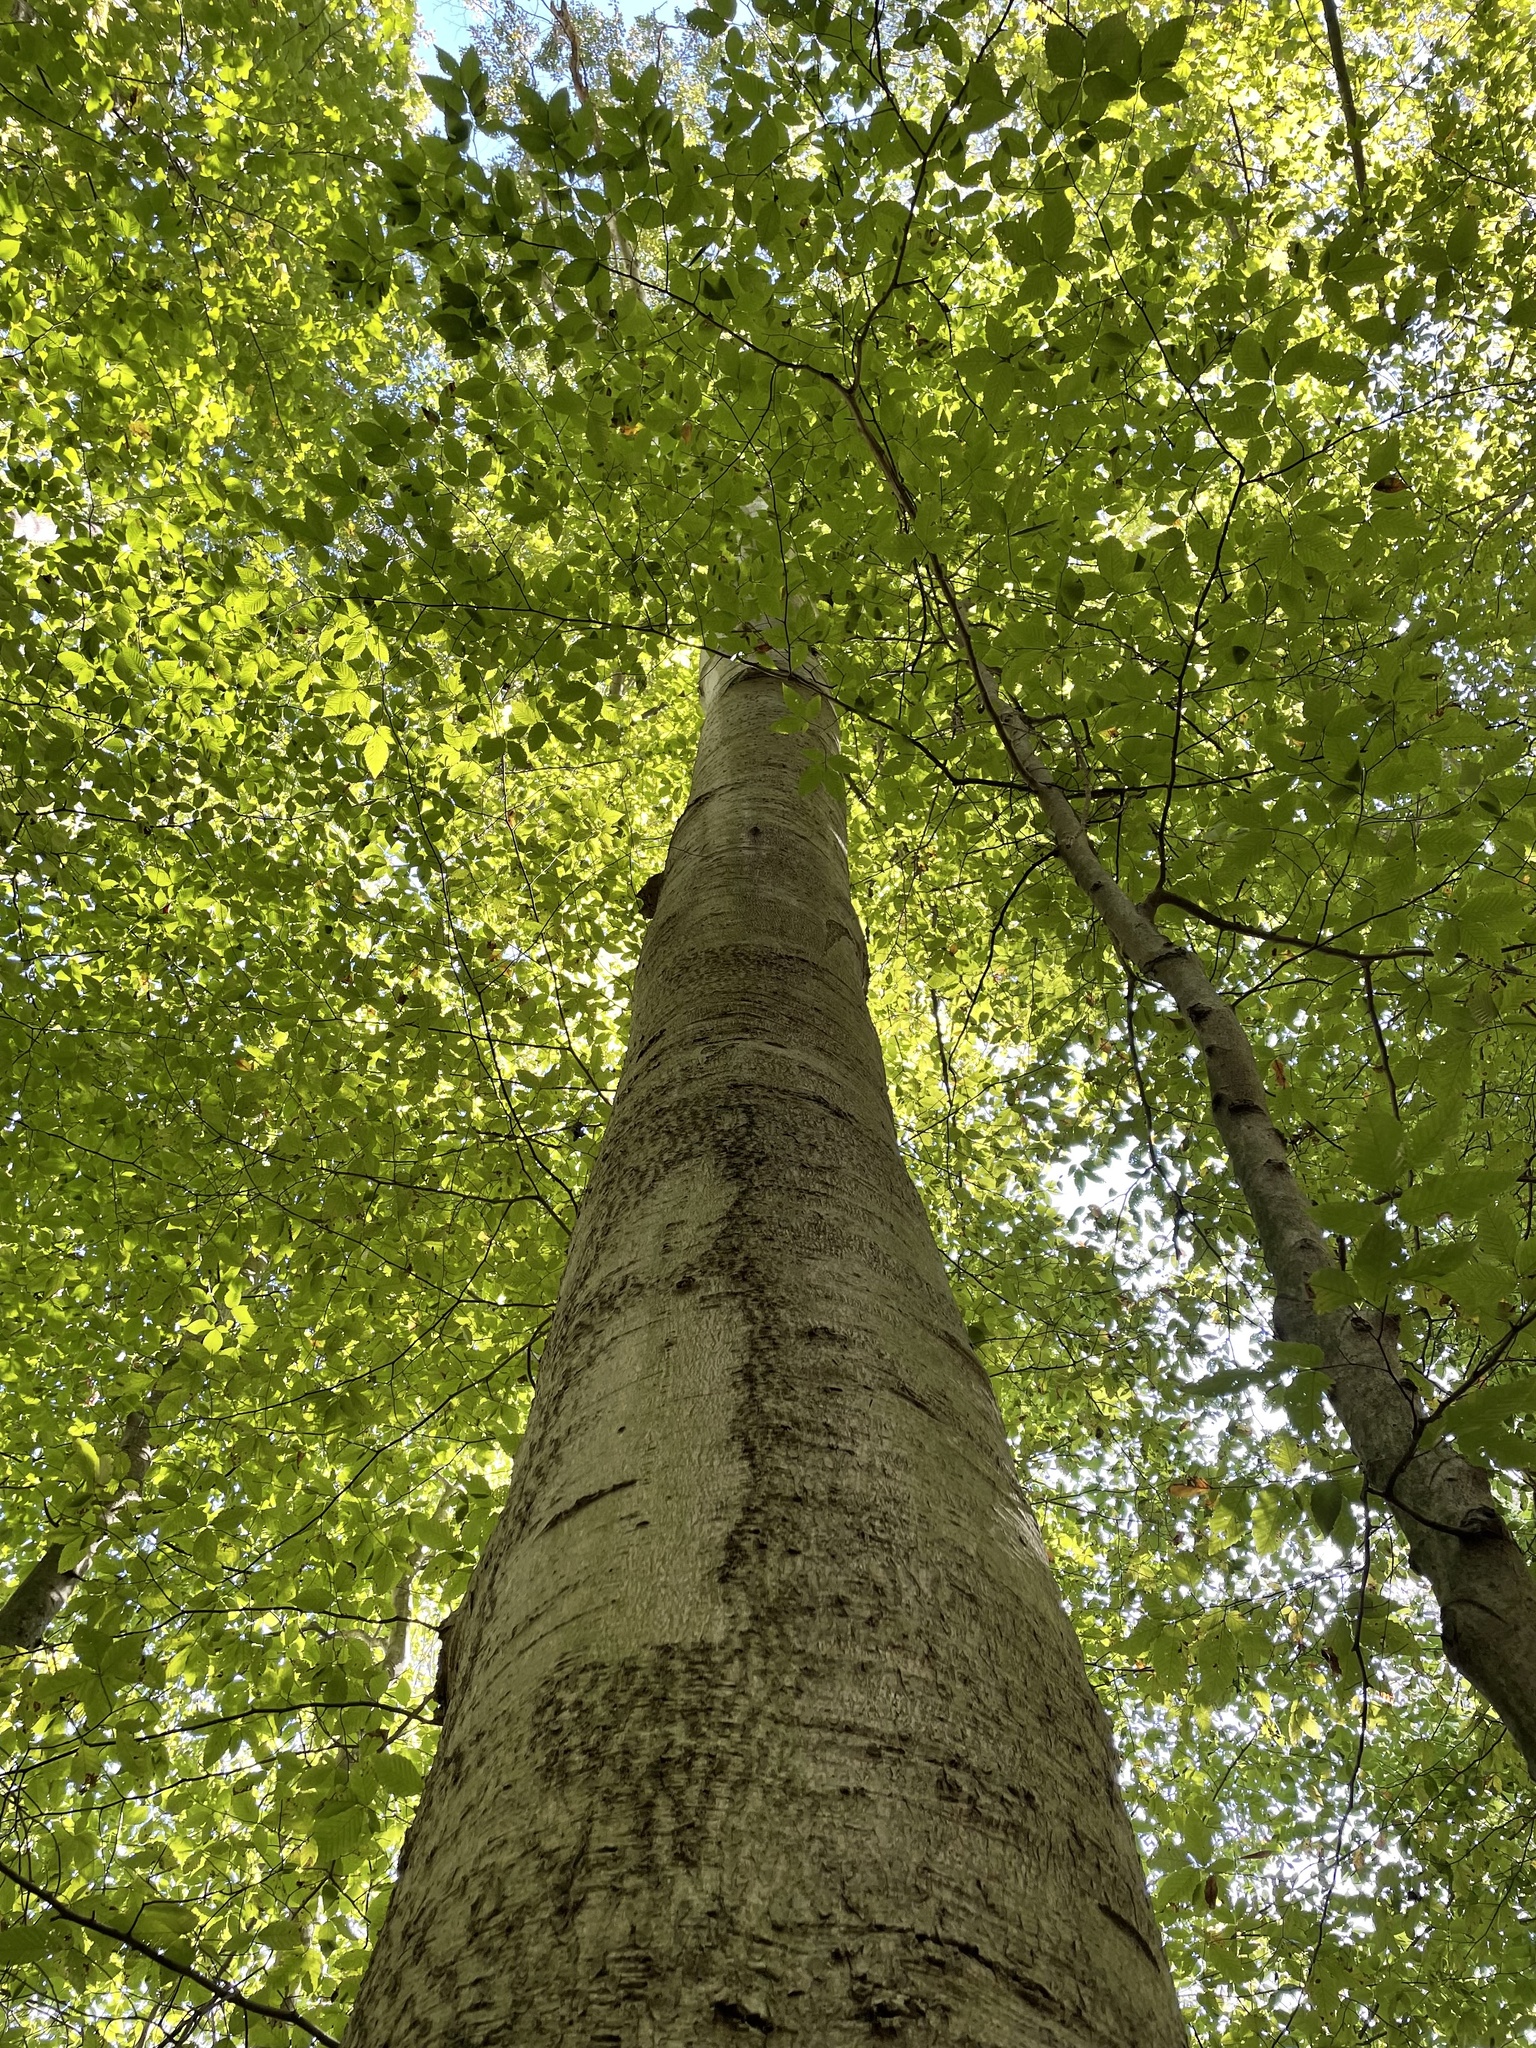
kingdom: Plantae
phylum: Tracheophyta
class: Magnoliopsida
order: Fagales
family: Fagaceae
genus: Fagus
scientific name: Fagus grandifolia
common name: American beech
